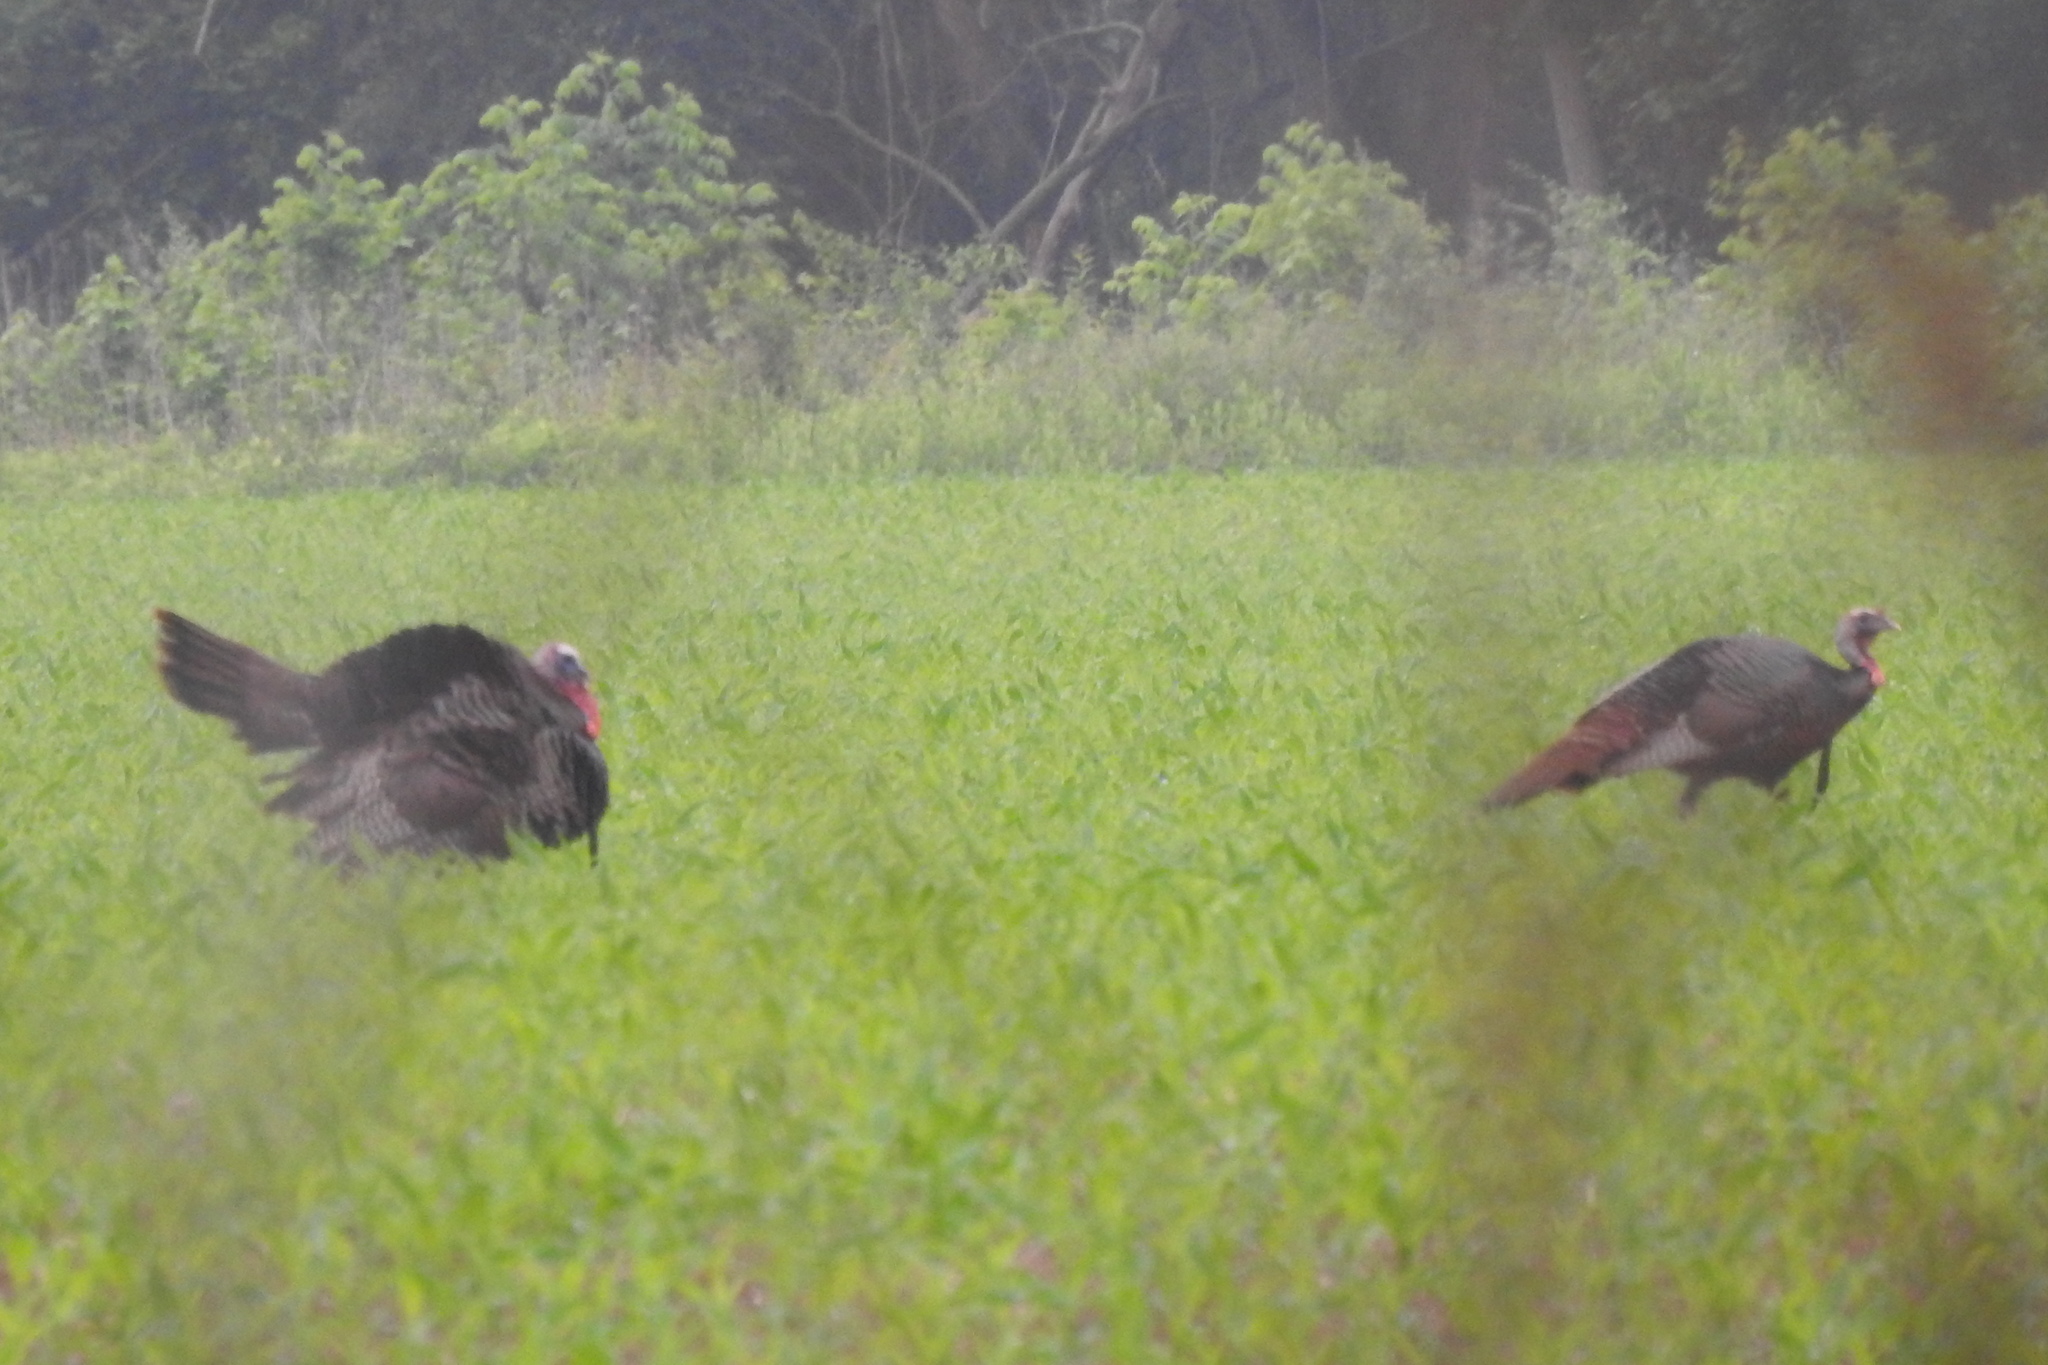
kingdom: Animalia
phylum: Chordata
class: Aves
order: Galliformes
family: Phasianidae
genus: Meleagris
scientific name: Meleagris gallopavo
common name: Wild turkey
